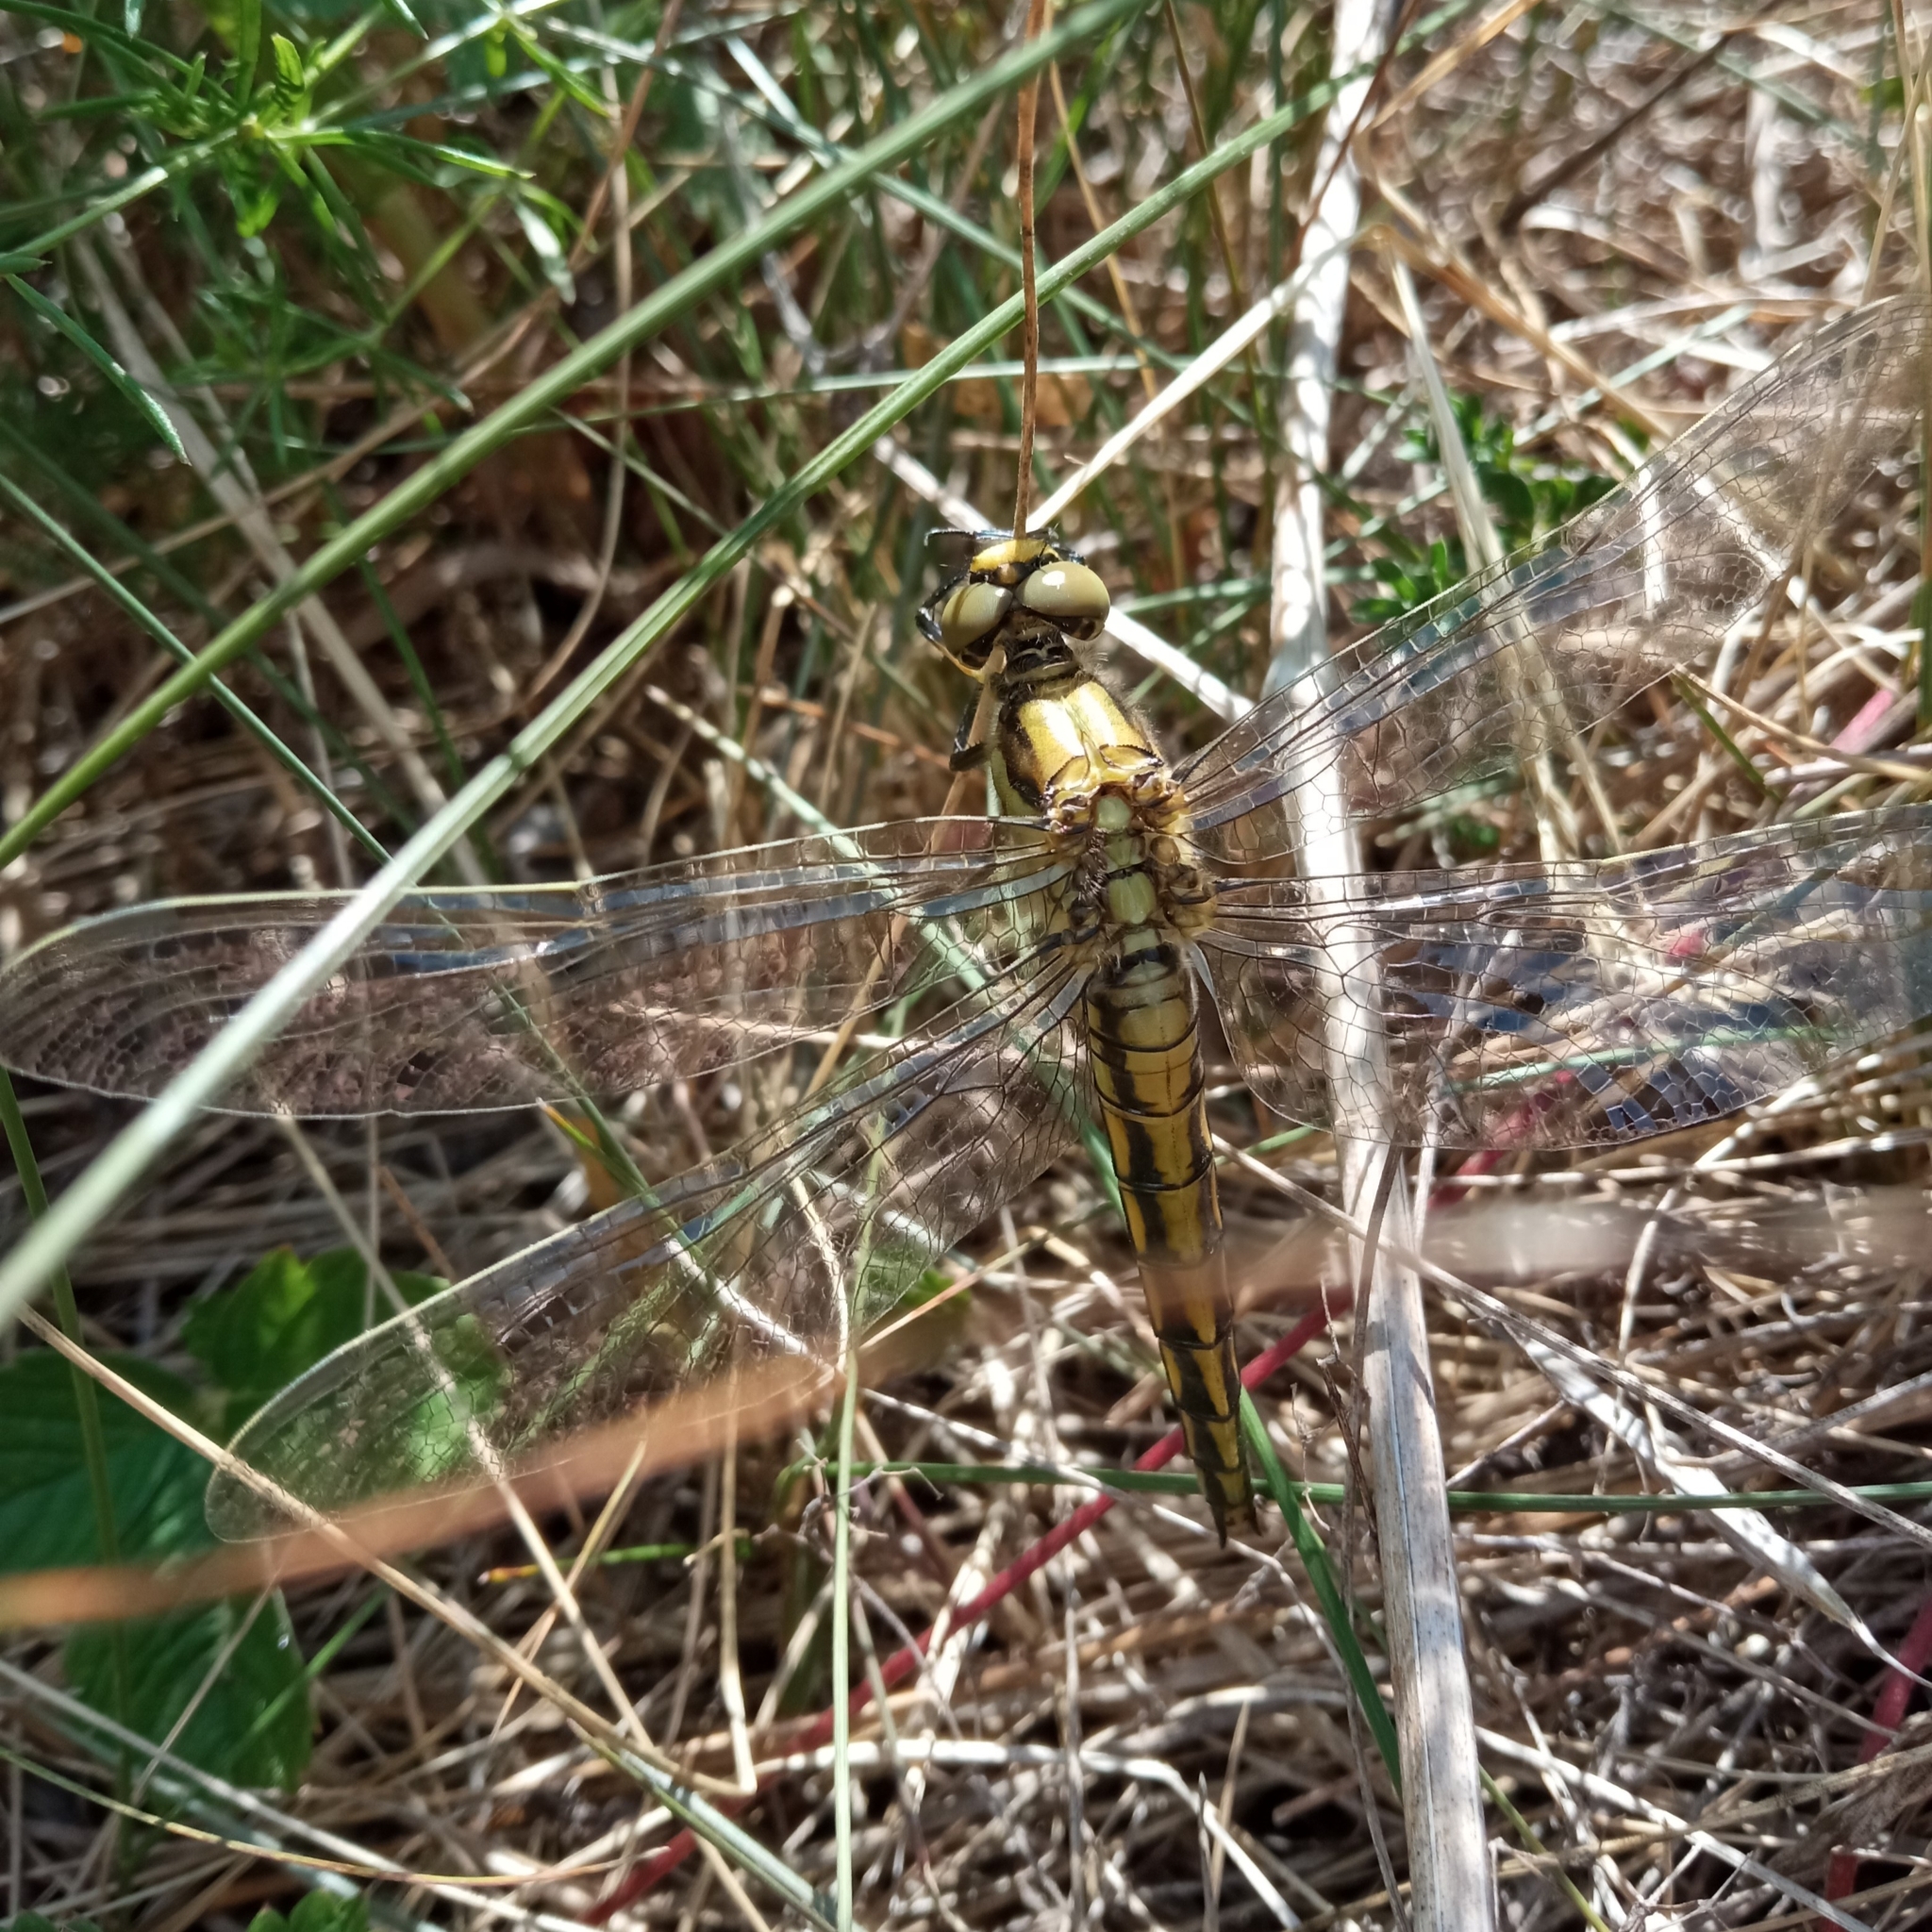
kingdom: Animalia
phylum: Arthropoda
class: Insecta
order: Odonata
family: Libellulidae
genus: Orthetrum
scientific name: Orthetrum cancellatum
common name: Black-tailed skimmer
